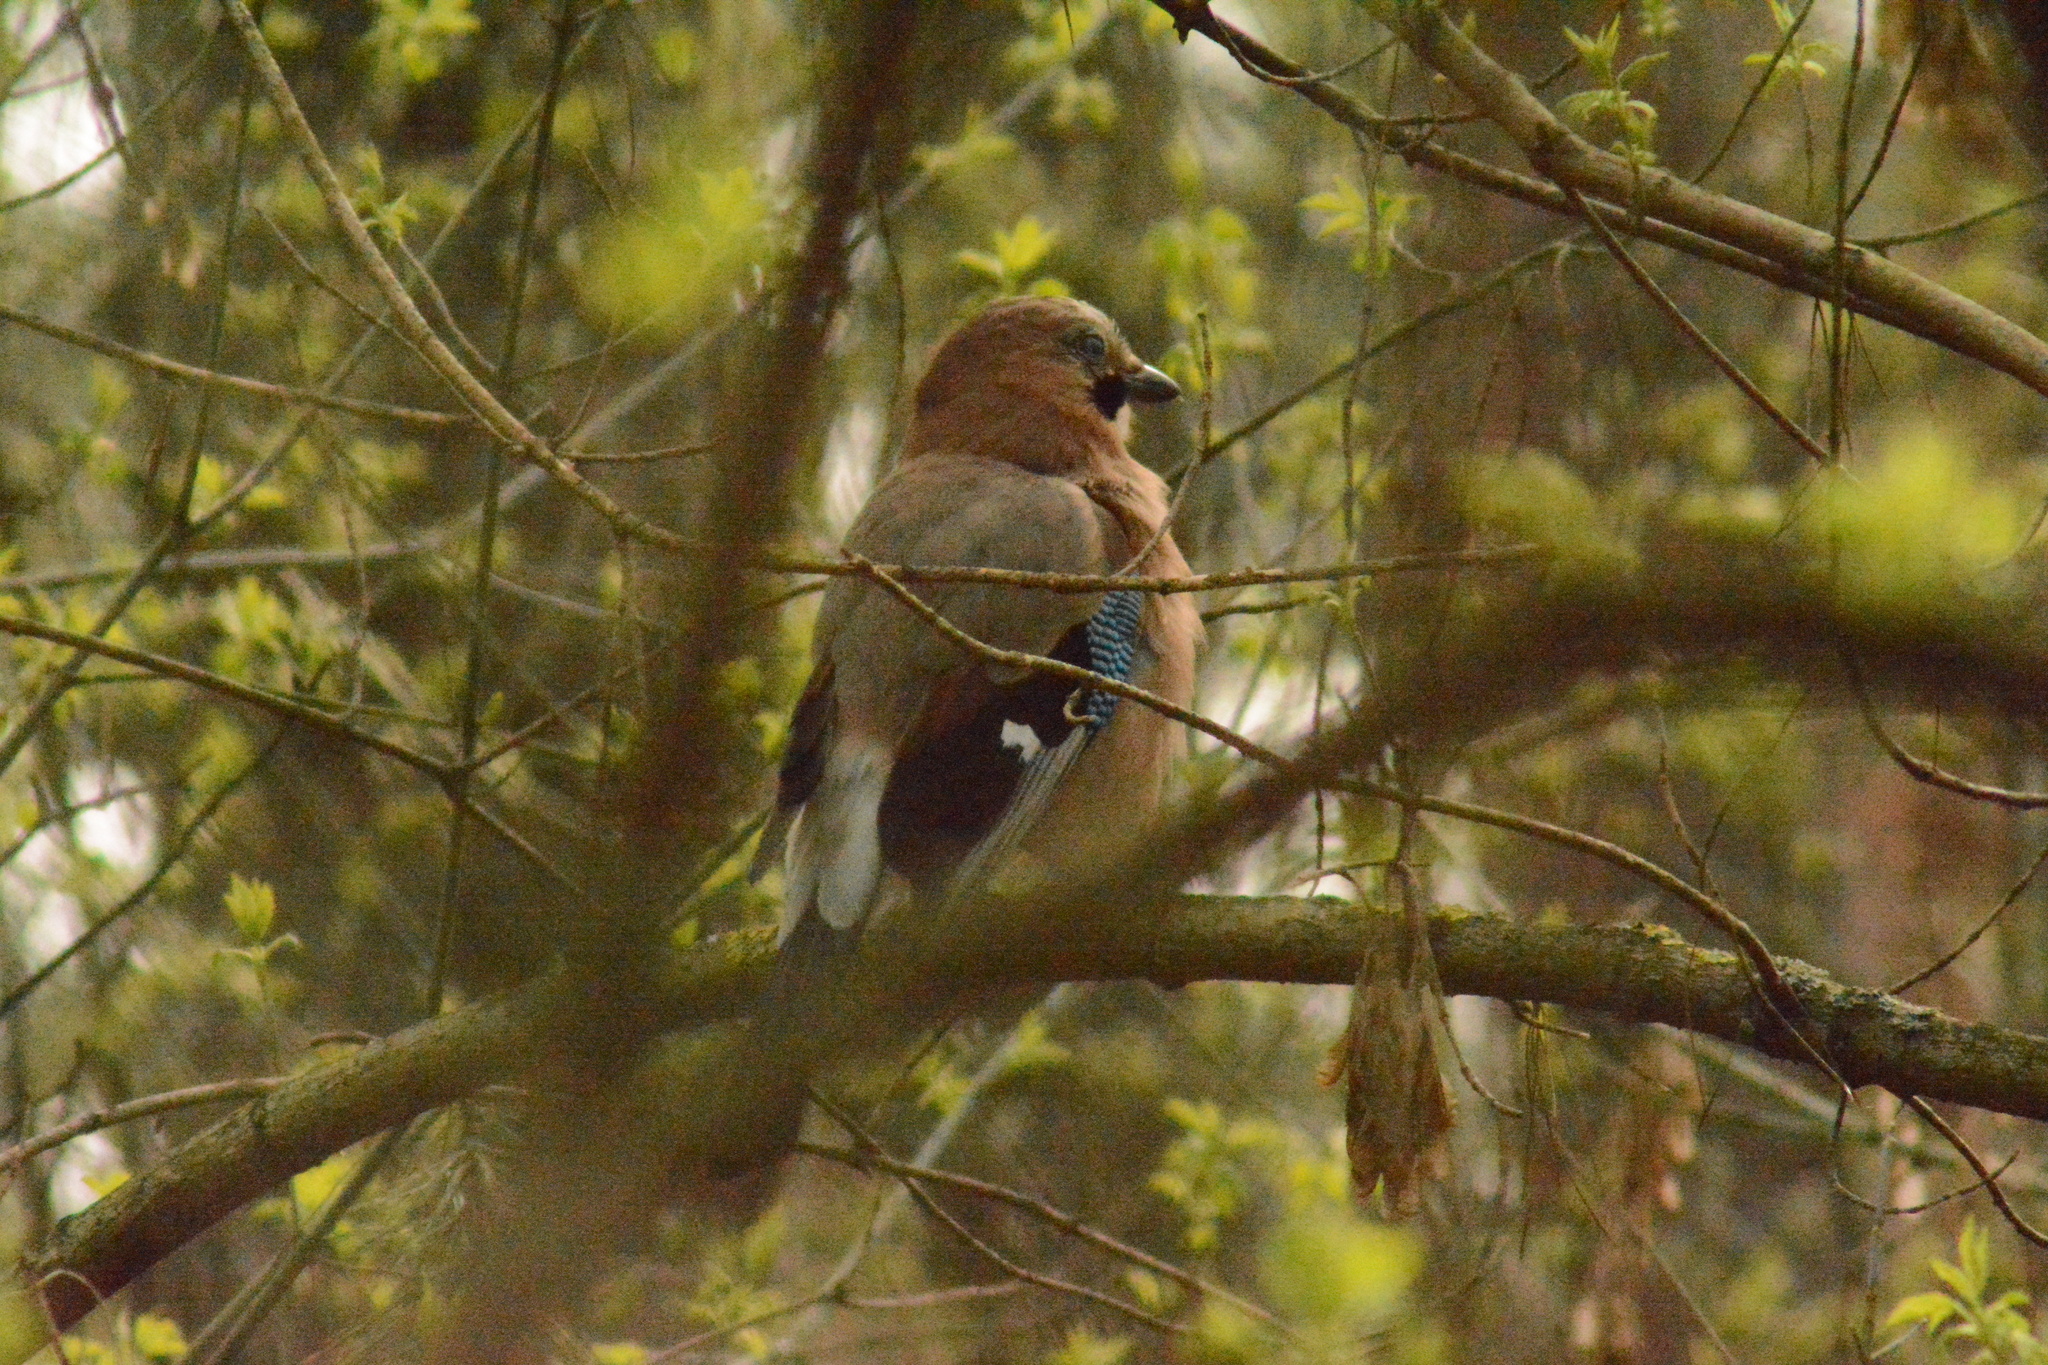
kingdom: Animalia
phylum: Chordata
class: Aves
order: Passeriformes
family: Corvidae
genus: Garrulus
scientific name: Garrulus glandarius
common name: Eurasian jay
